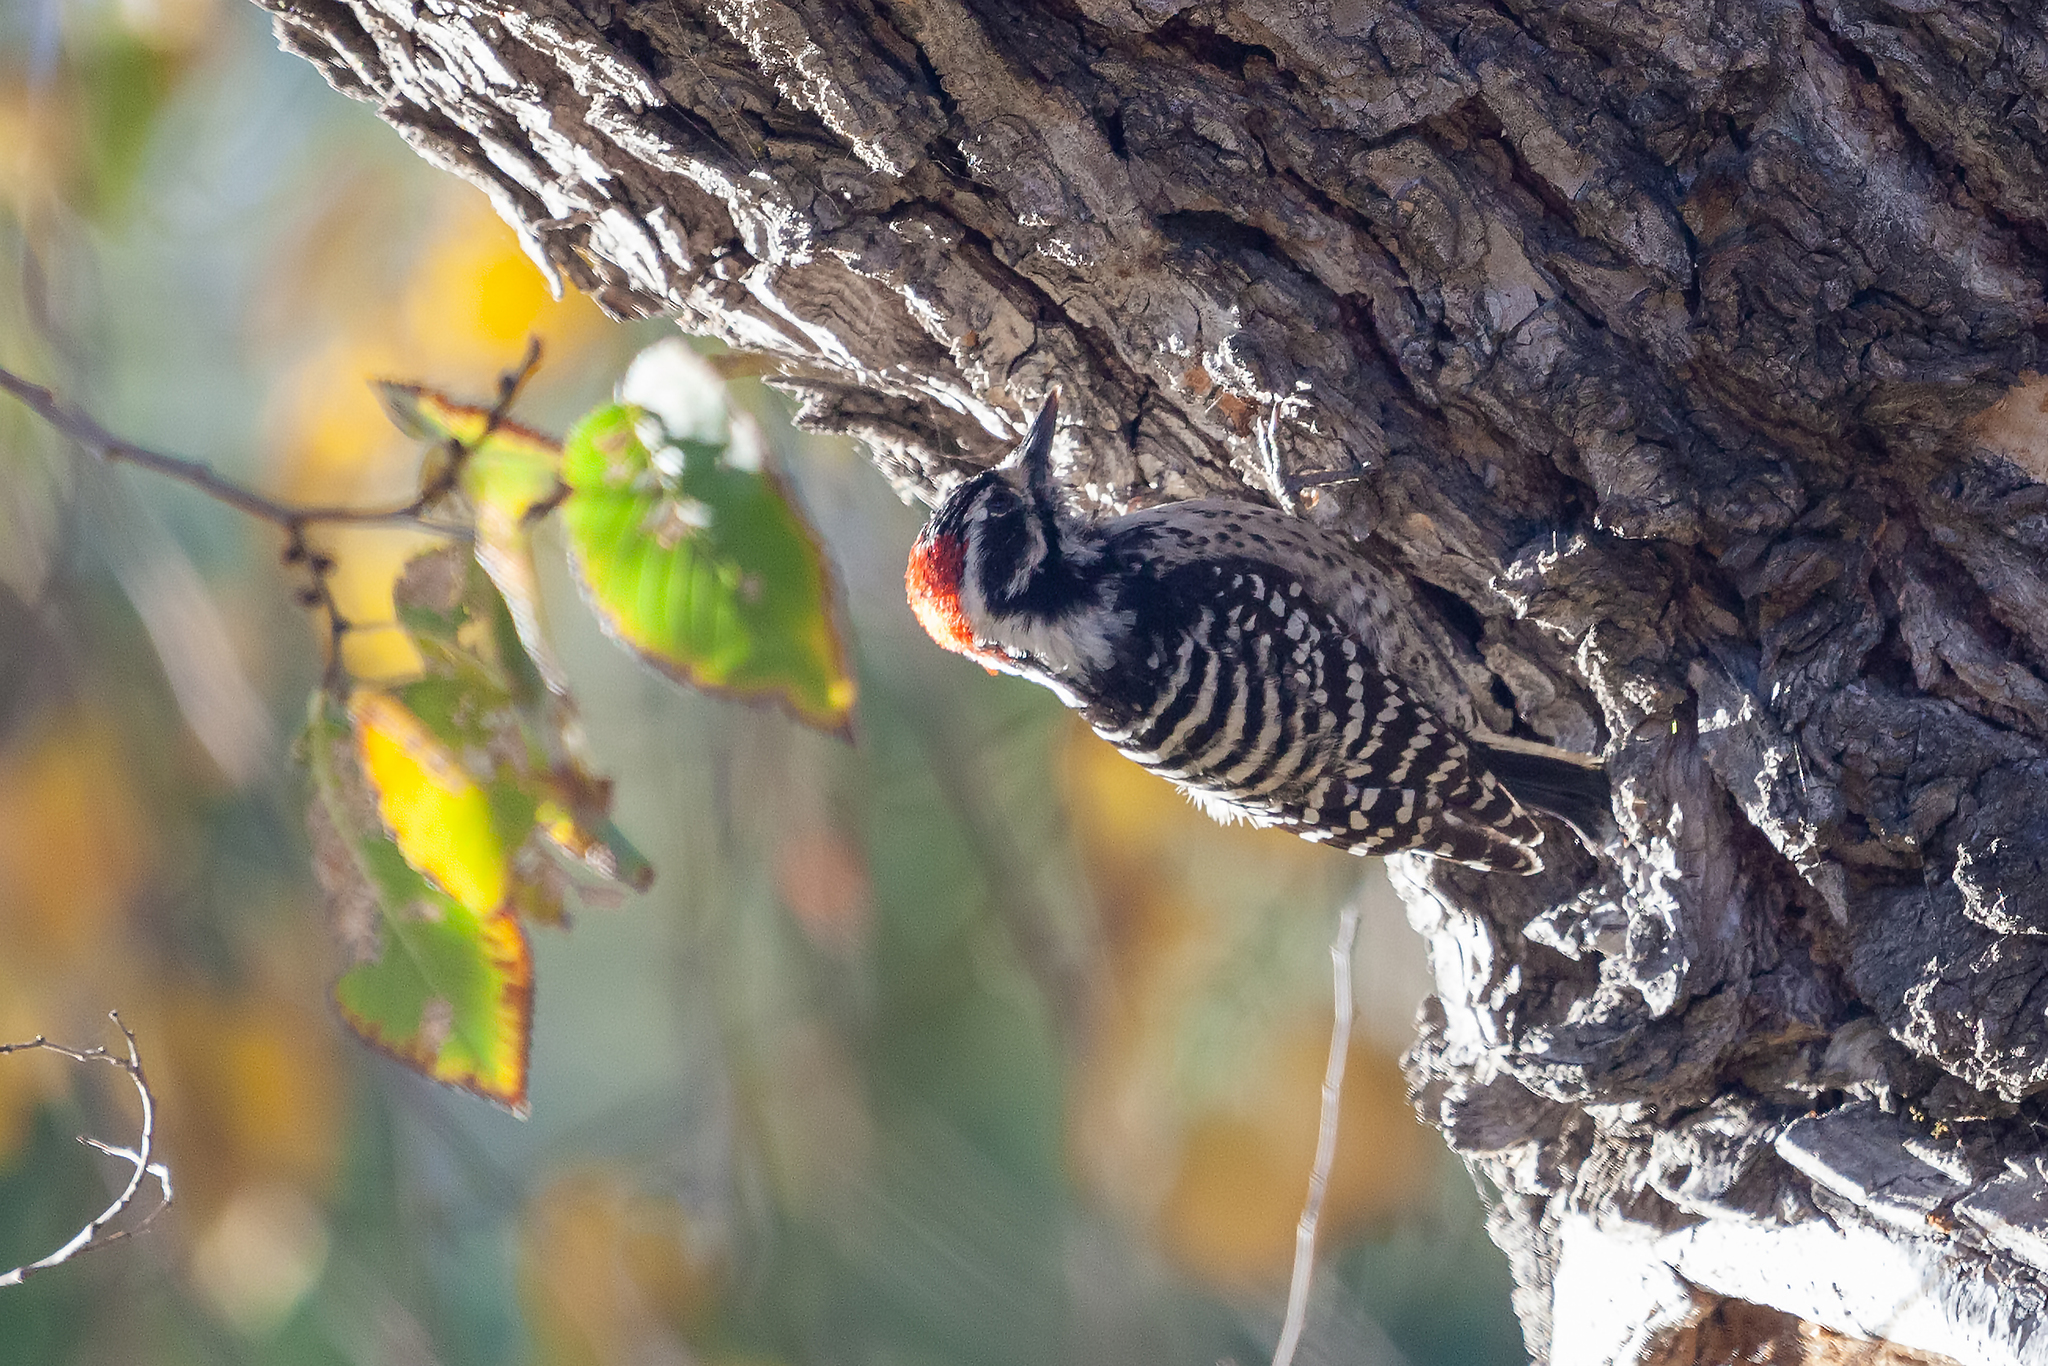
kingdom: Animalia
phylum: Chordata
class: Aves
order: Piciformes
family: Picidae
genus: Dryobates
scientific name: Dryobates nuttallii
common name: Nuttall's woodpecker
